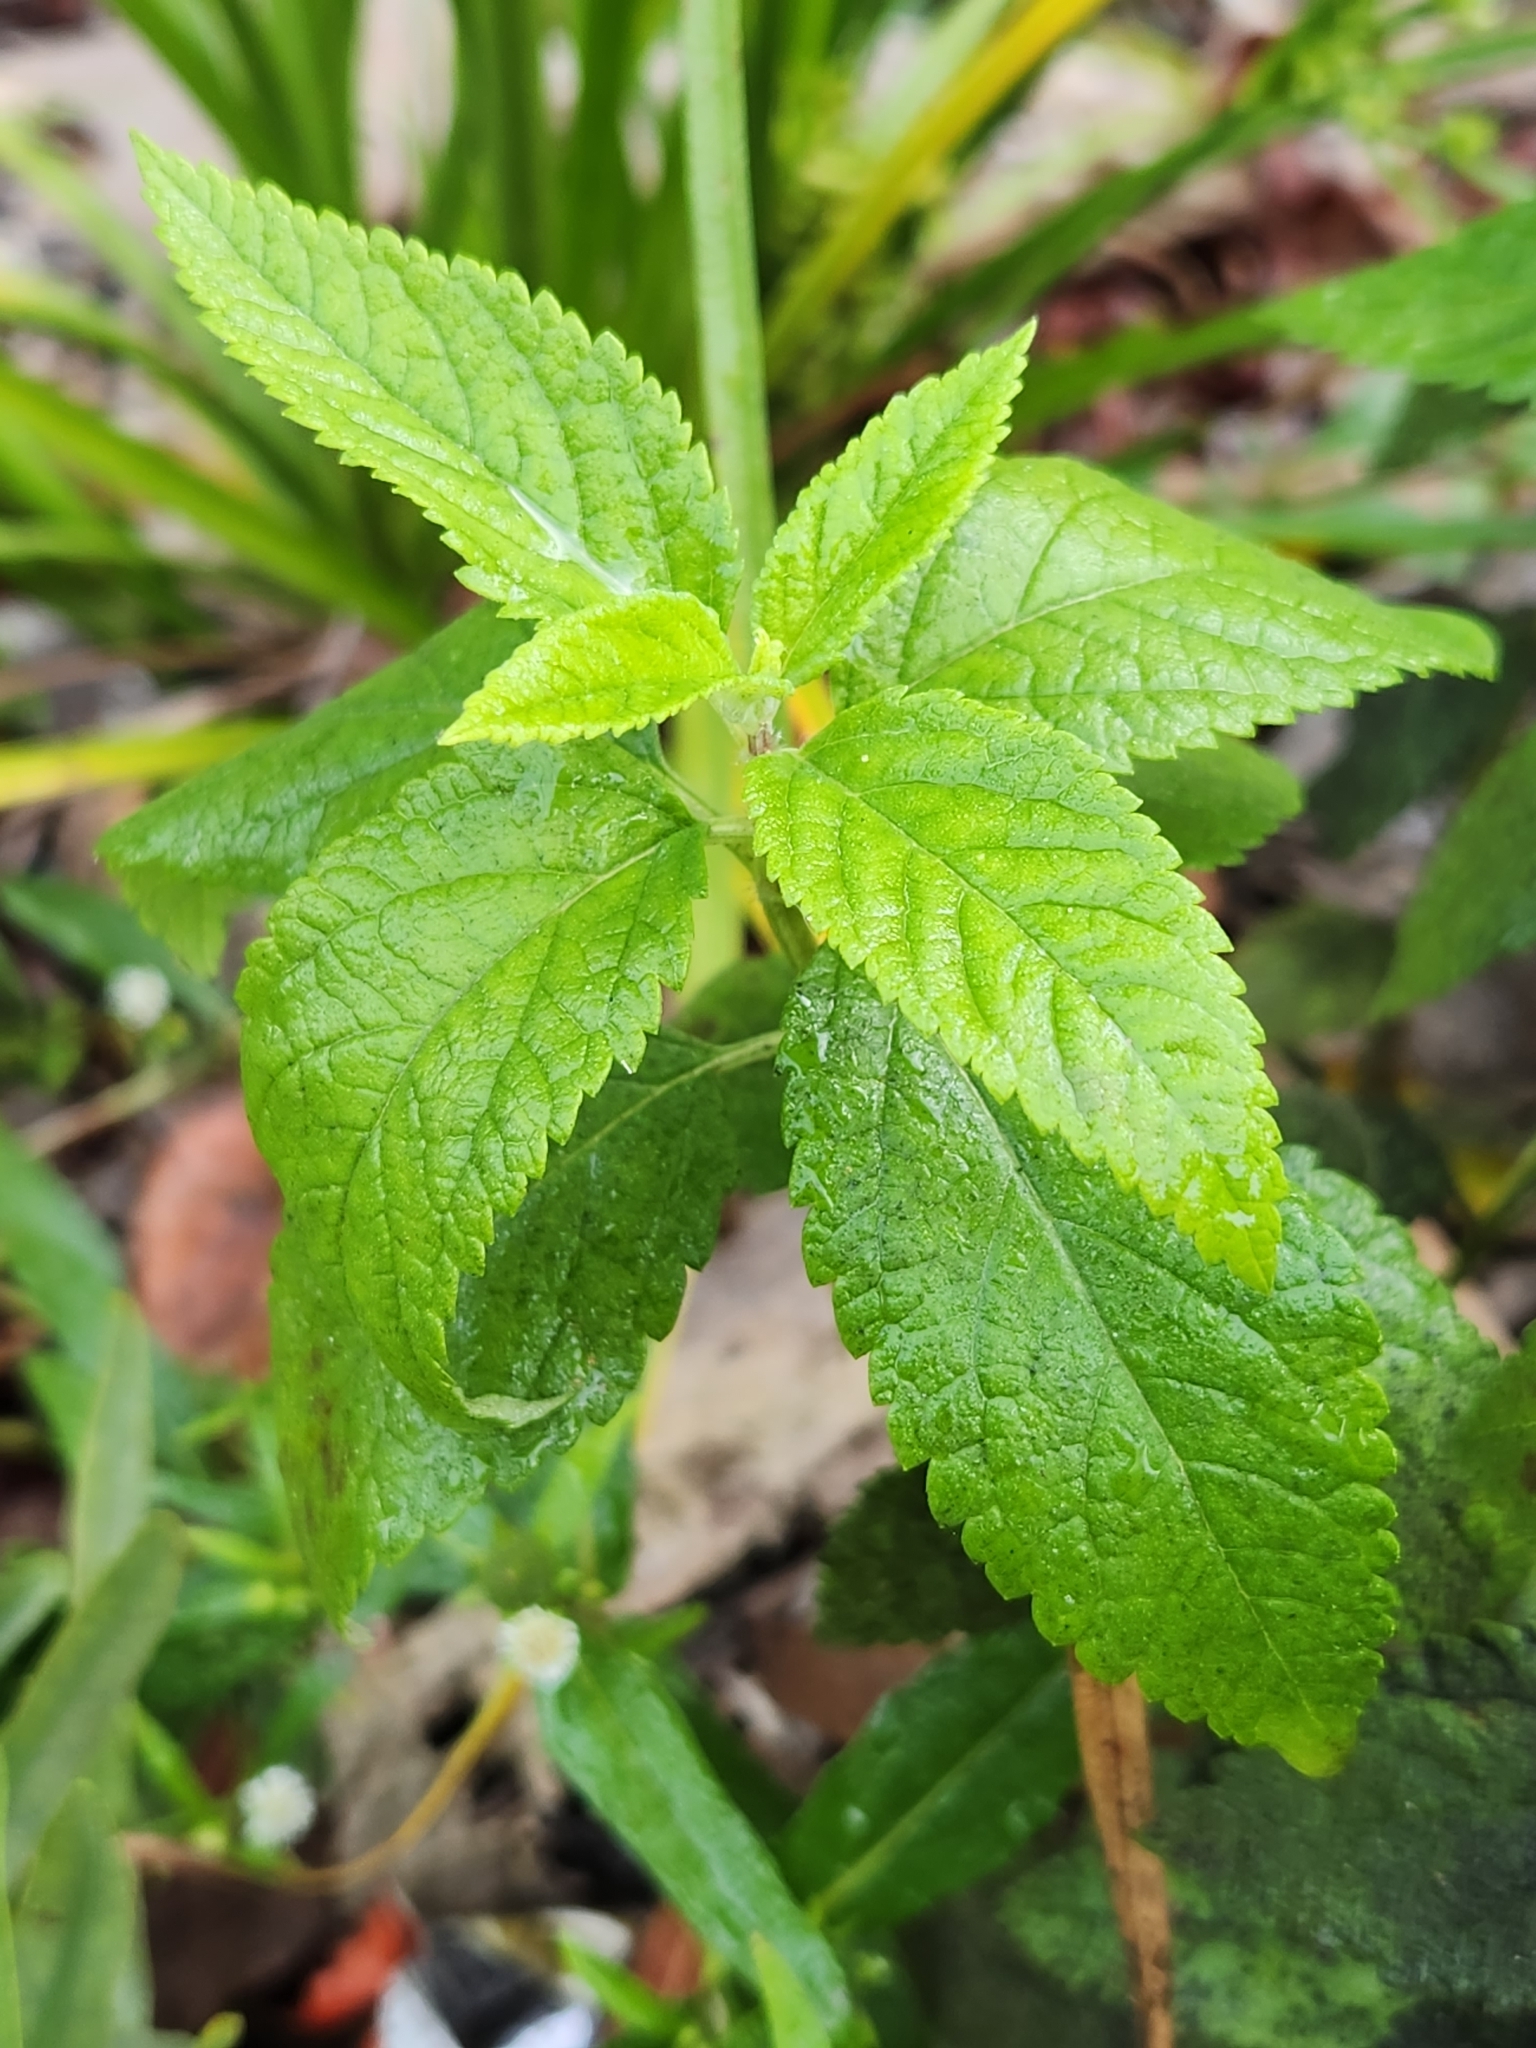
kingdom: Plantae
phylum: Tracheophyta
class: Magnoliopsida
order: Lamiales
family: Lamiaceae
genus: Teucrium
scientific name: Teucrium canadense
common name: American germander
